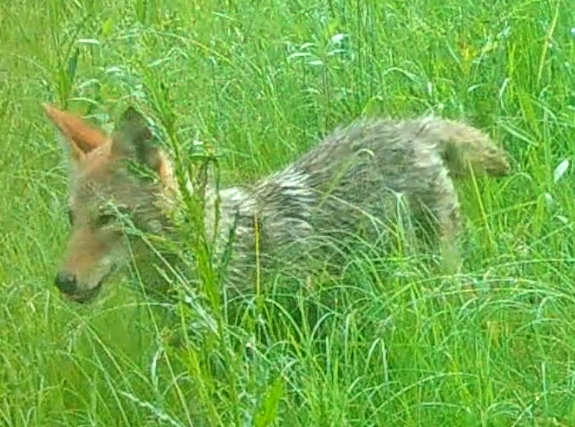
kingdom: Animalia
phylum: Chordata
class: Mammalia
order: Carnivora
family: Canidae
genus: Canis
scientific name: Canis latrans
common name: Coyote
